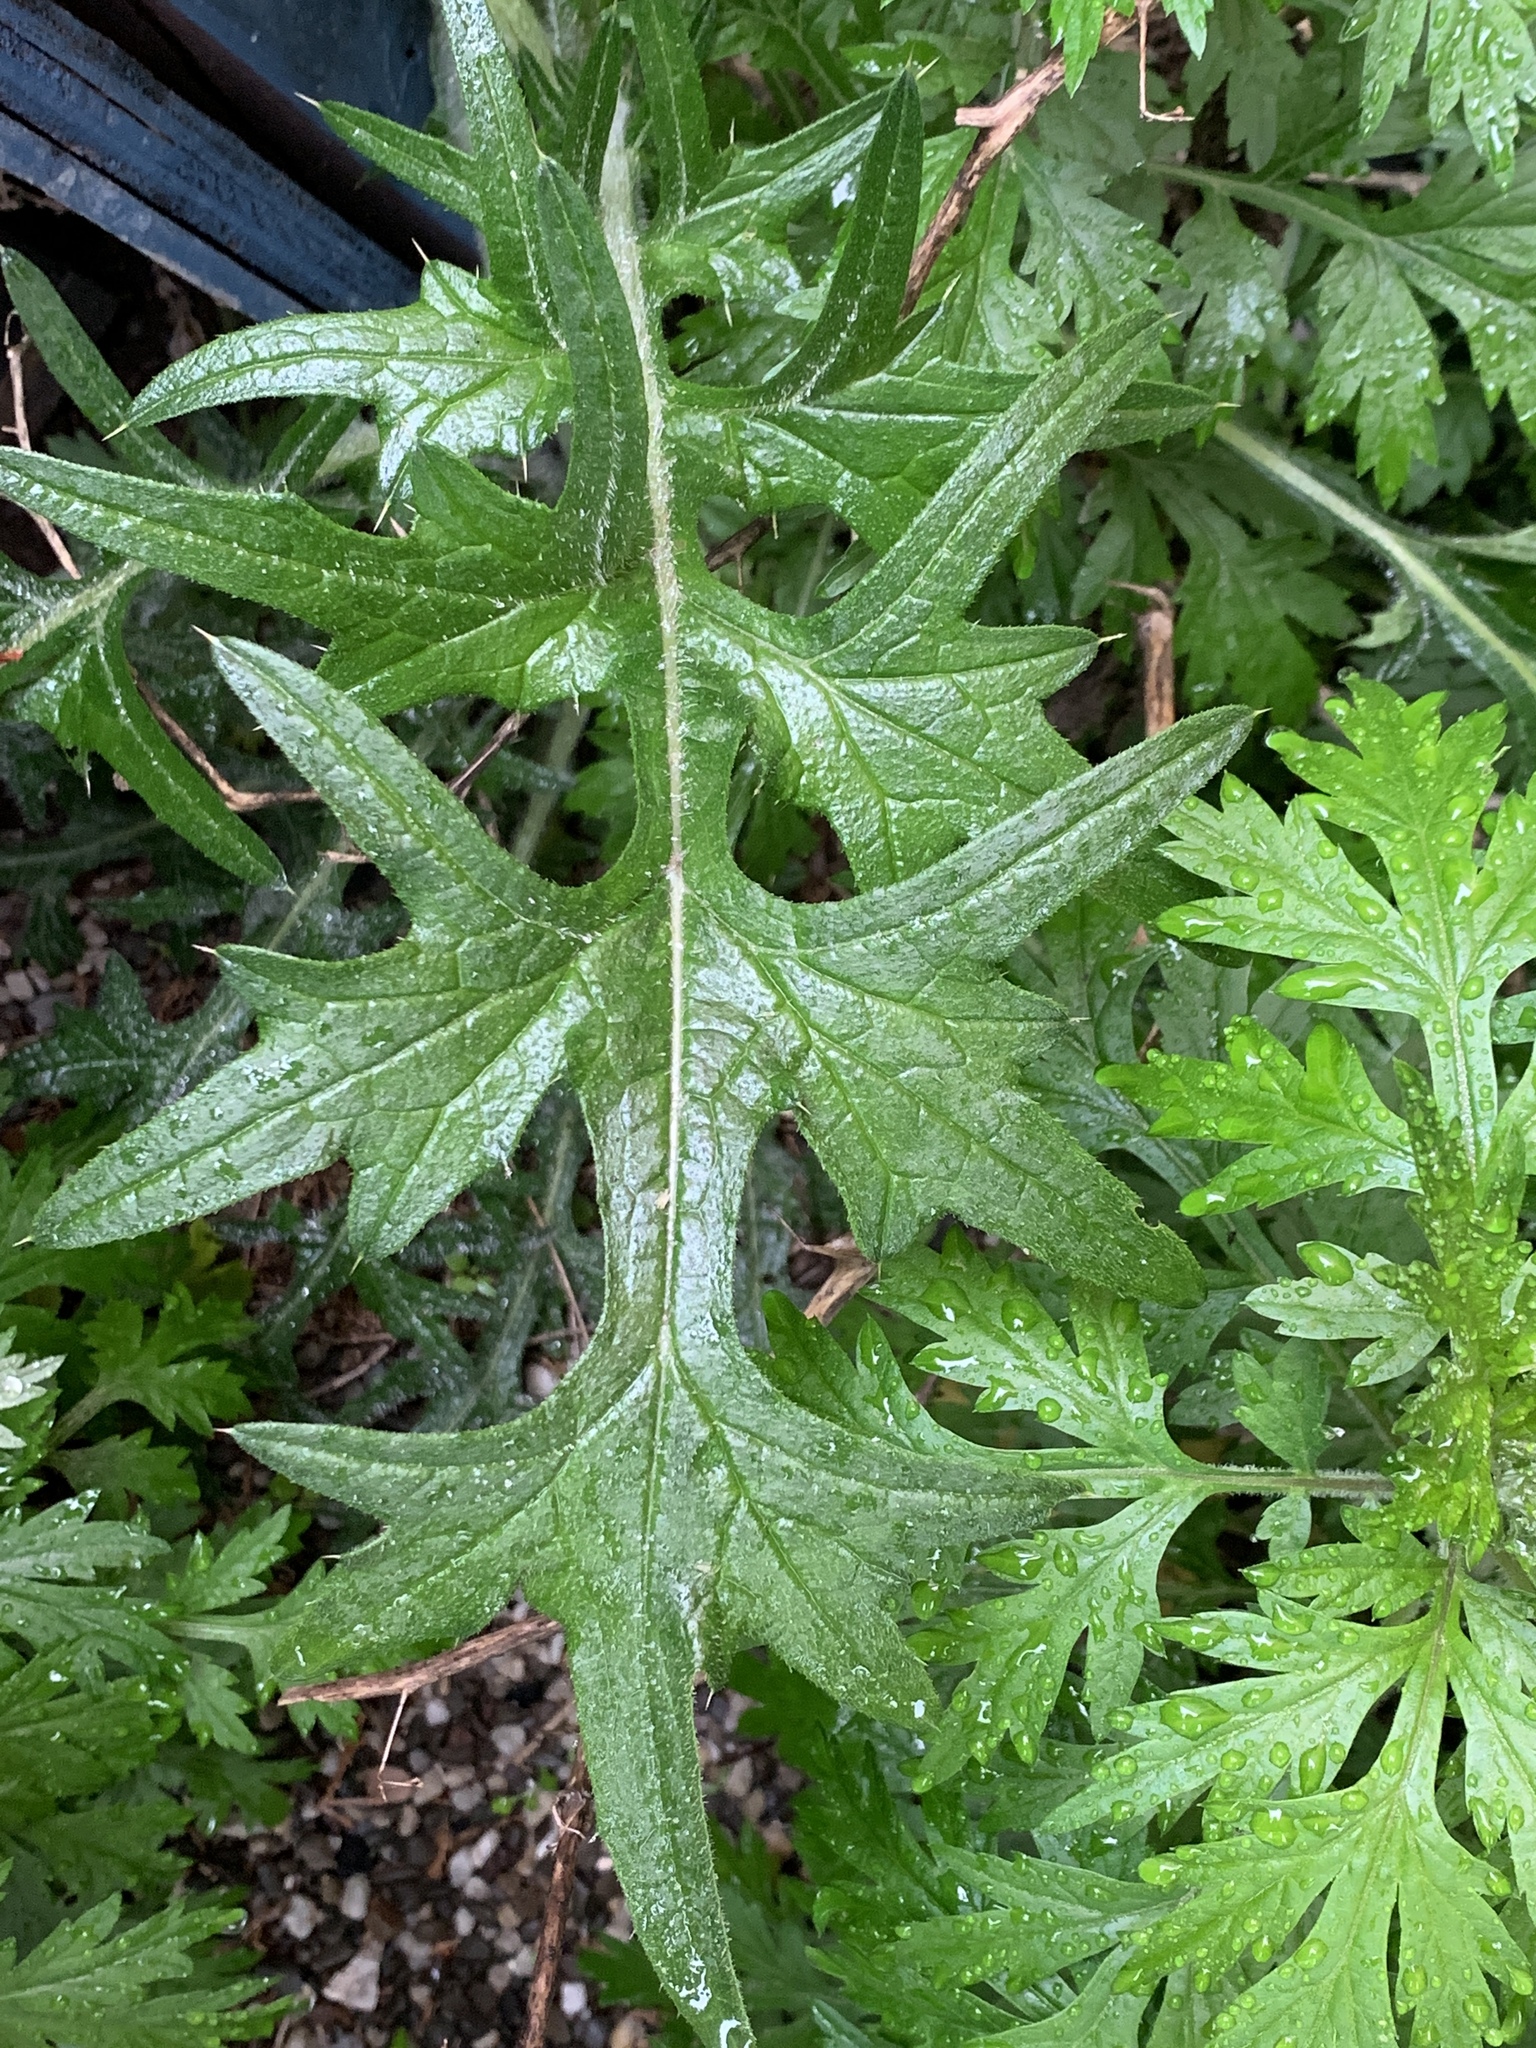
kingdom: Plantae
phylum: Tracheophyta
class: Magnoliopsida
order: Asterales
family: Asteraceae
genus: Cirsium
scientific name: Cirsium vulgare
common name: Bull thistle
